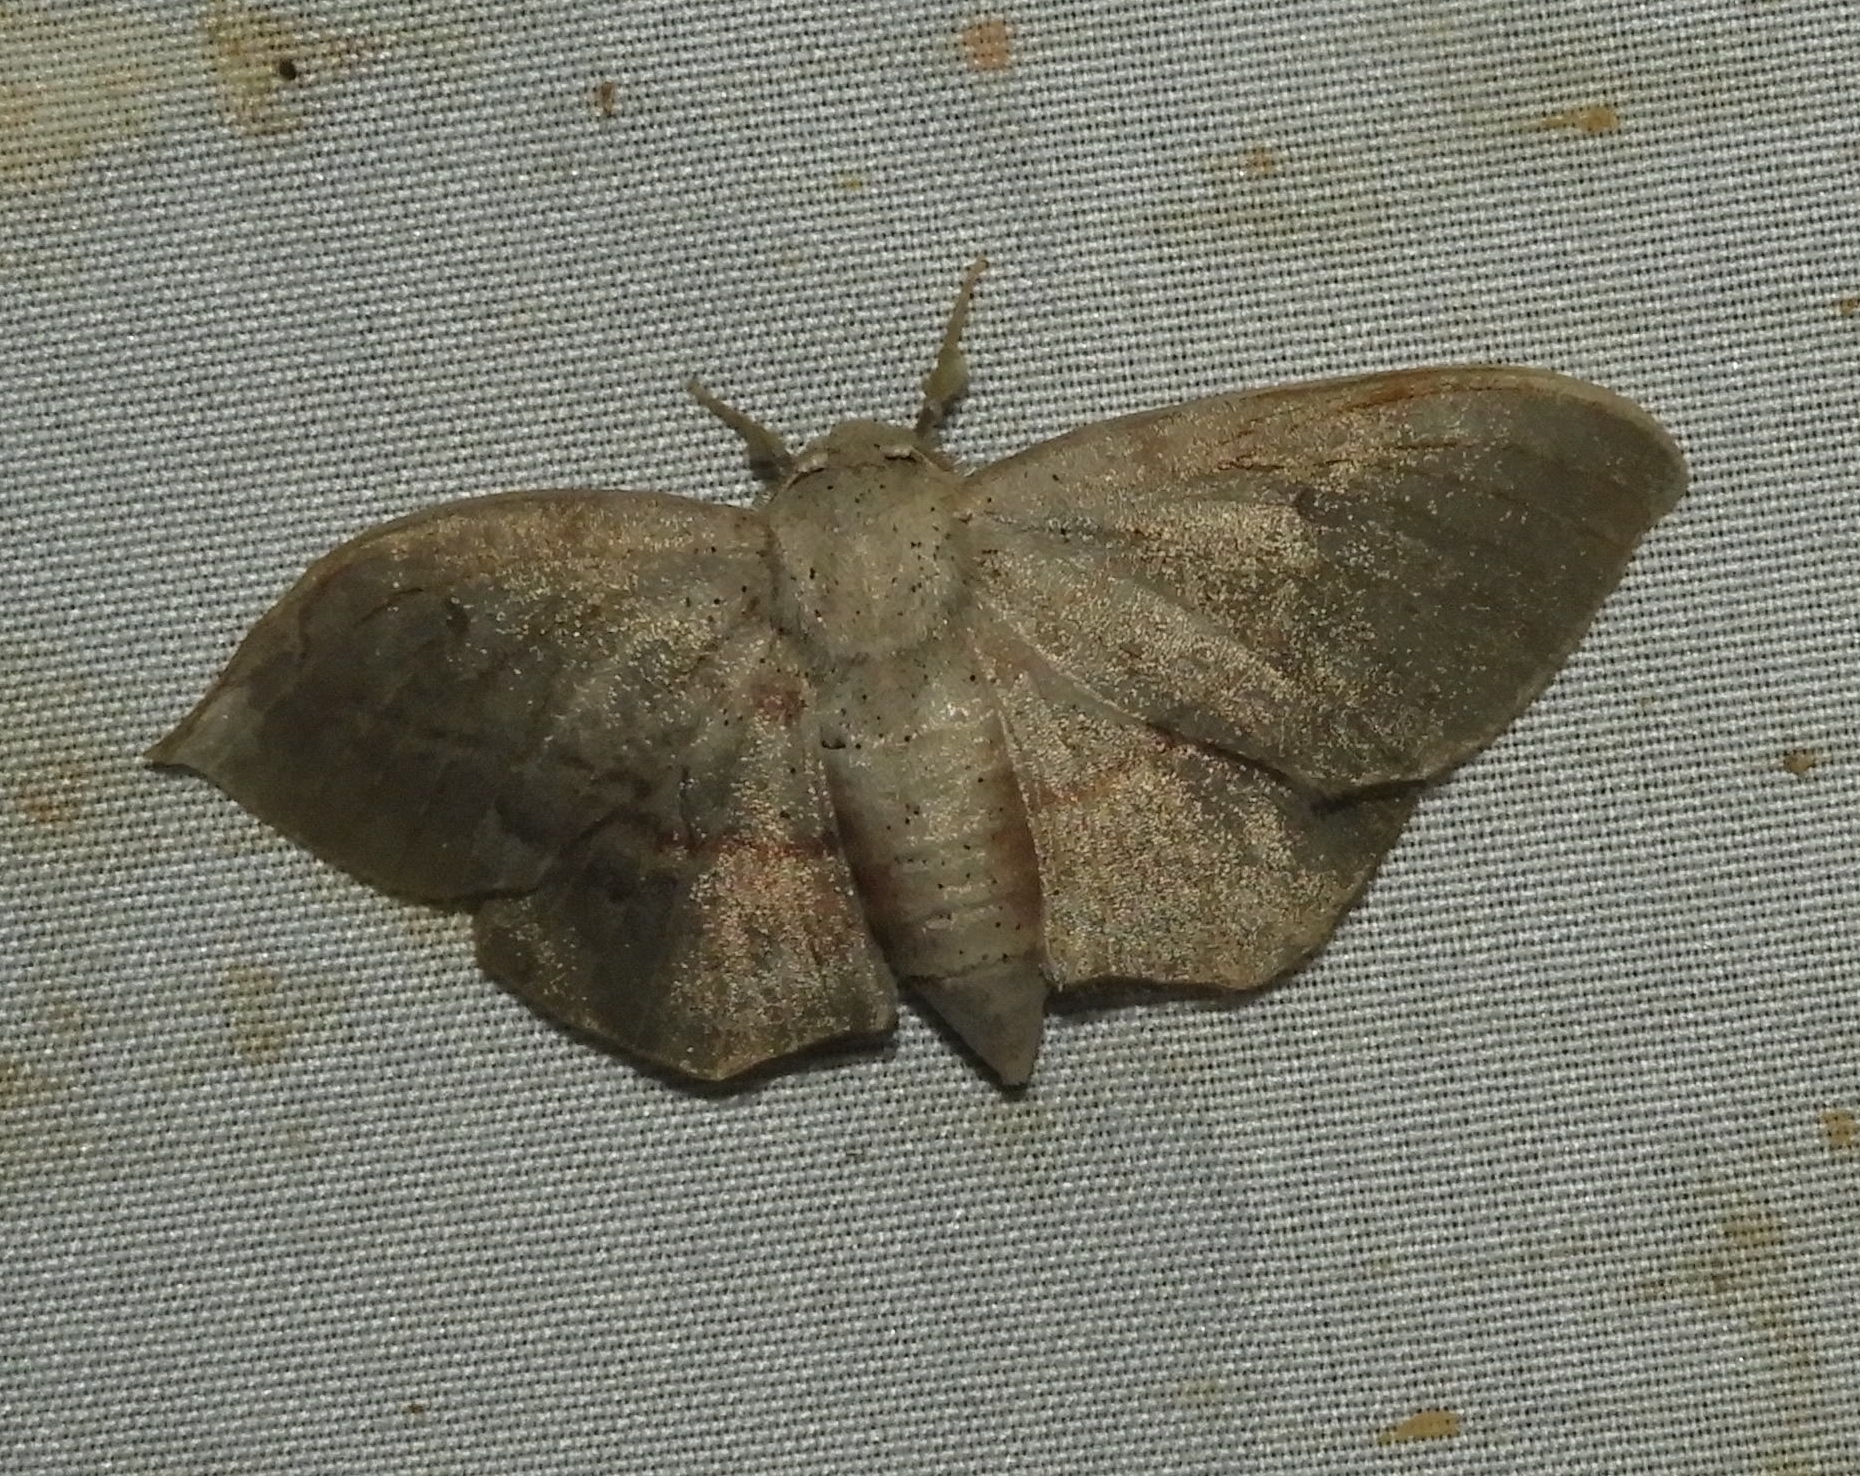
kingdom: Animalia
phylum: Arthropoda
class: Insecta
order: Lepidoptera
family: Mimallonidae
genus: Mimallo
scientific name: Mimallo
